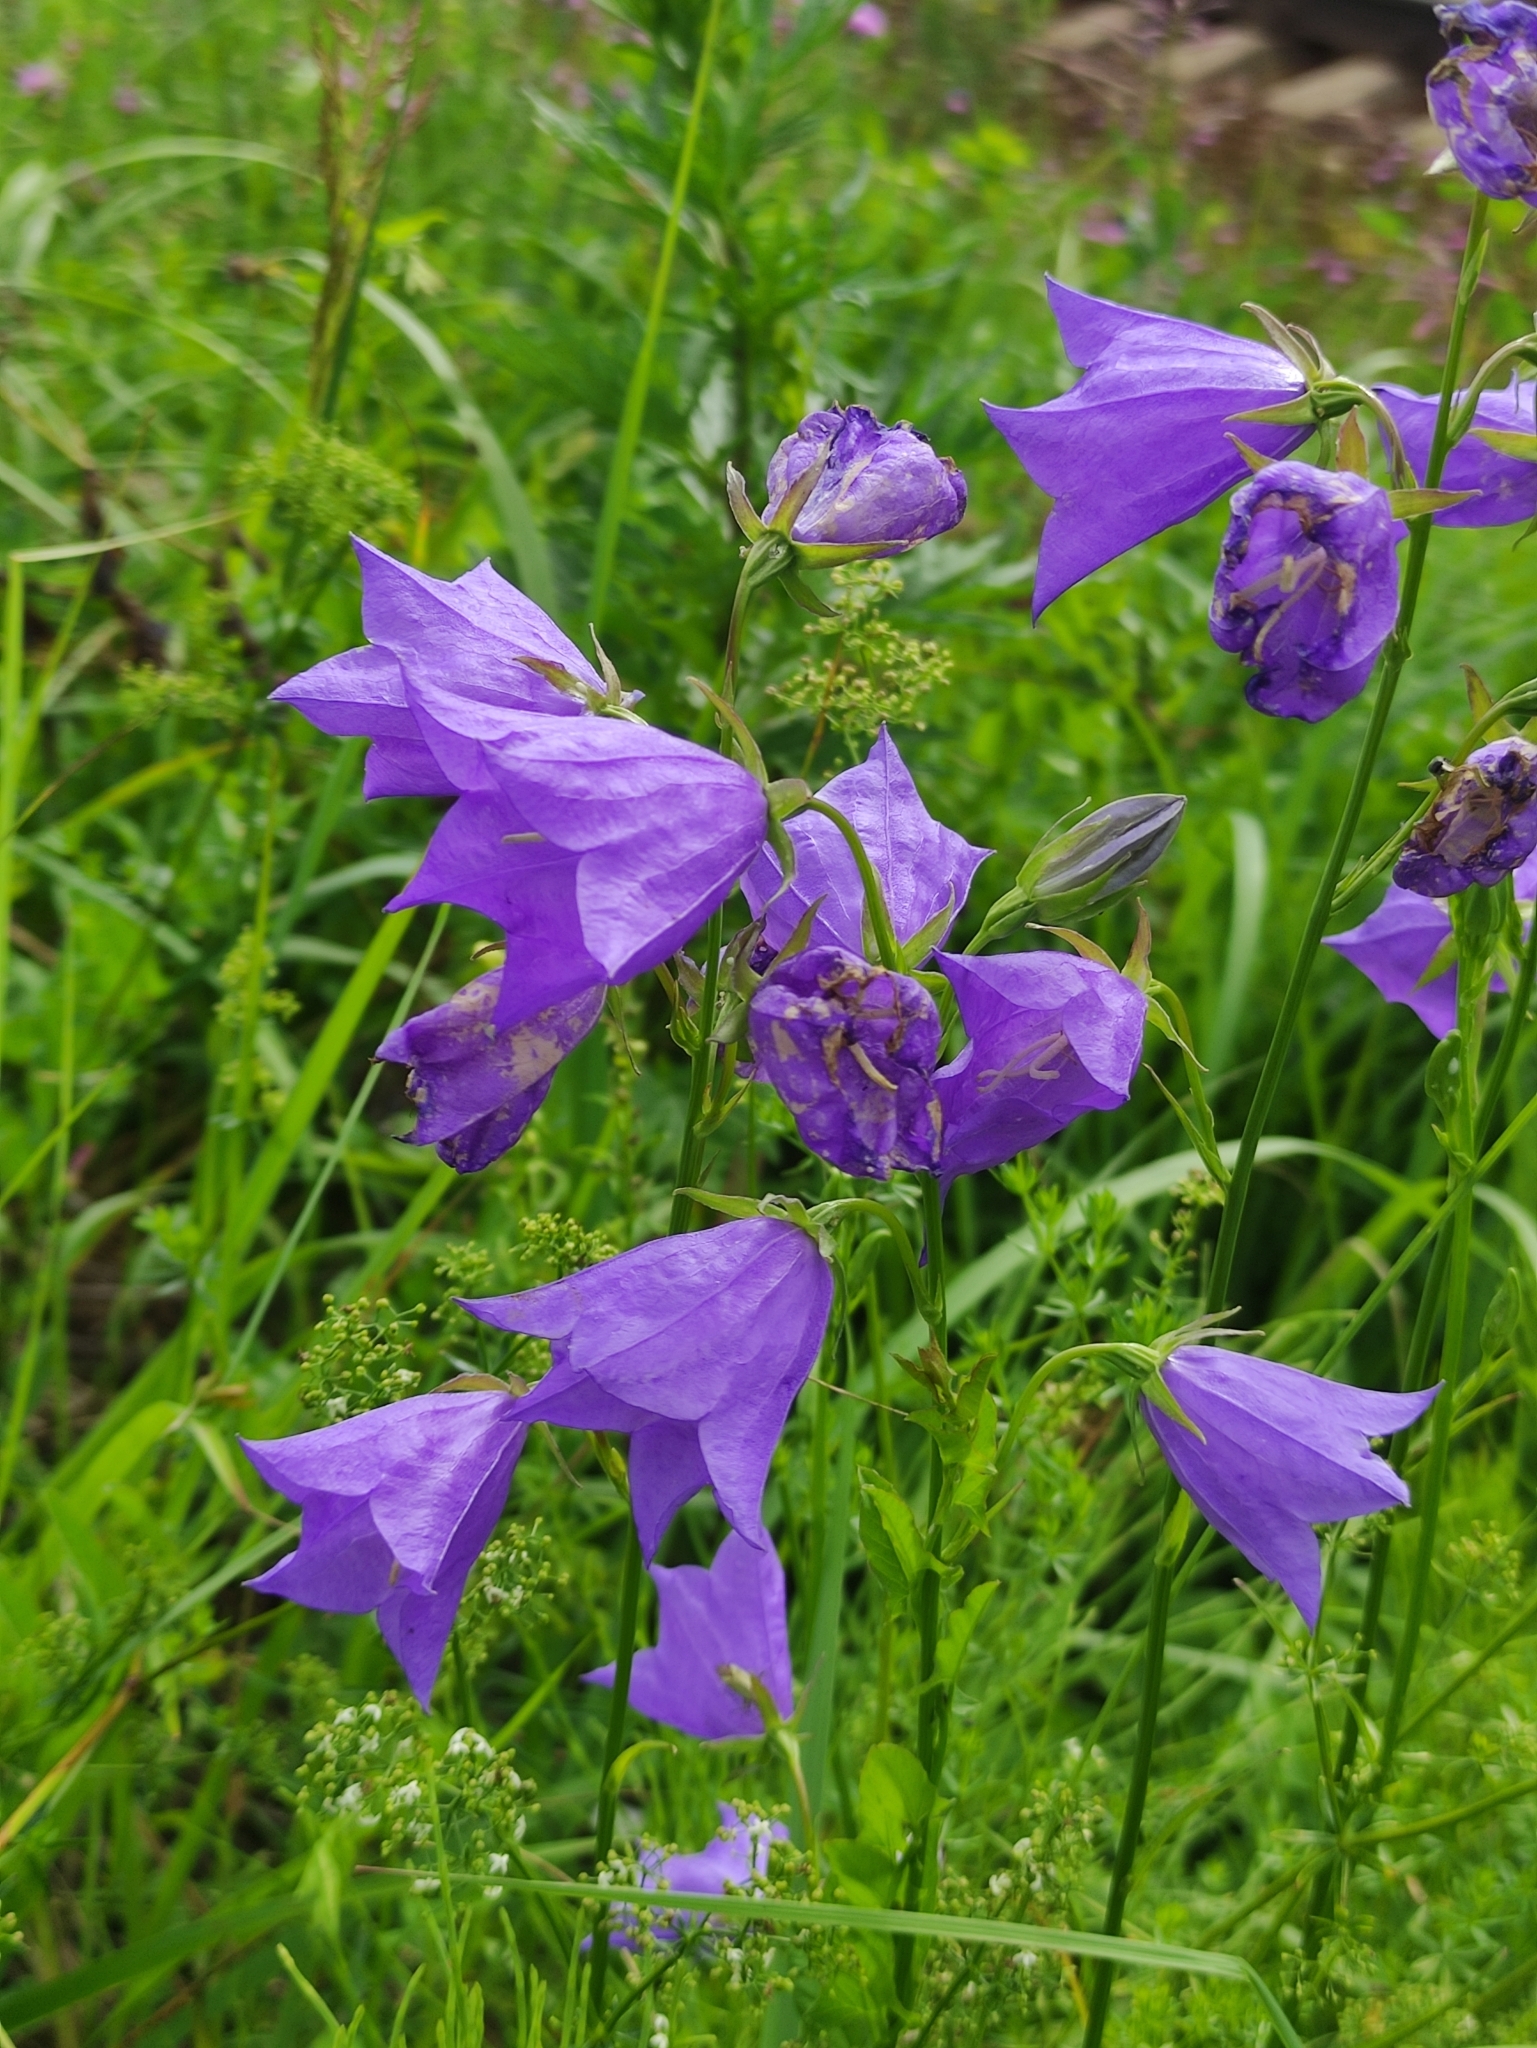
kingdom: Plantae
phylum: Tracheophyta
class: Magnoliopsida
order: Asterales
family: Campanulaceae
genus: Campanula
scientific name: Campanula persicifolia
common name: Peach-leaved bellflower
